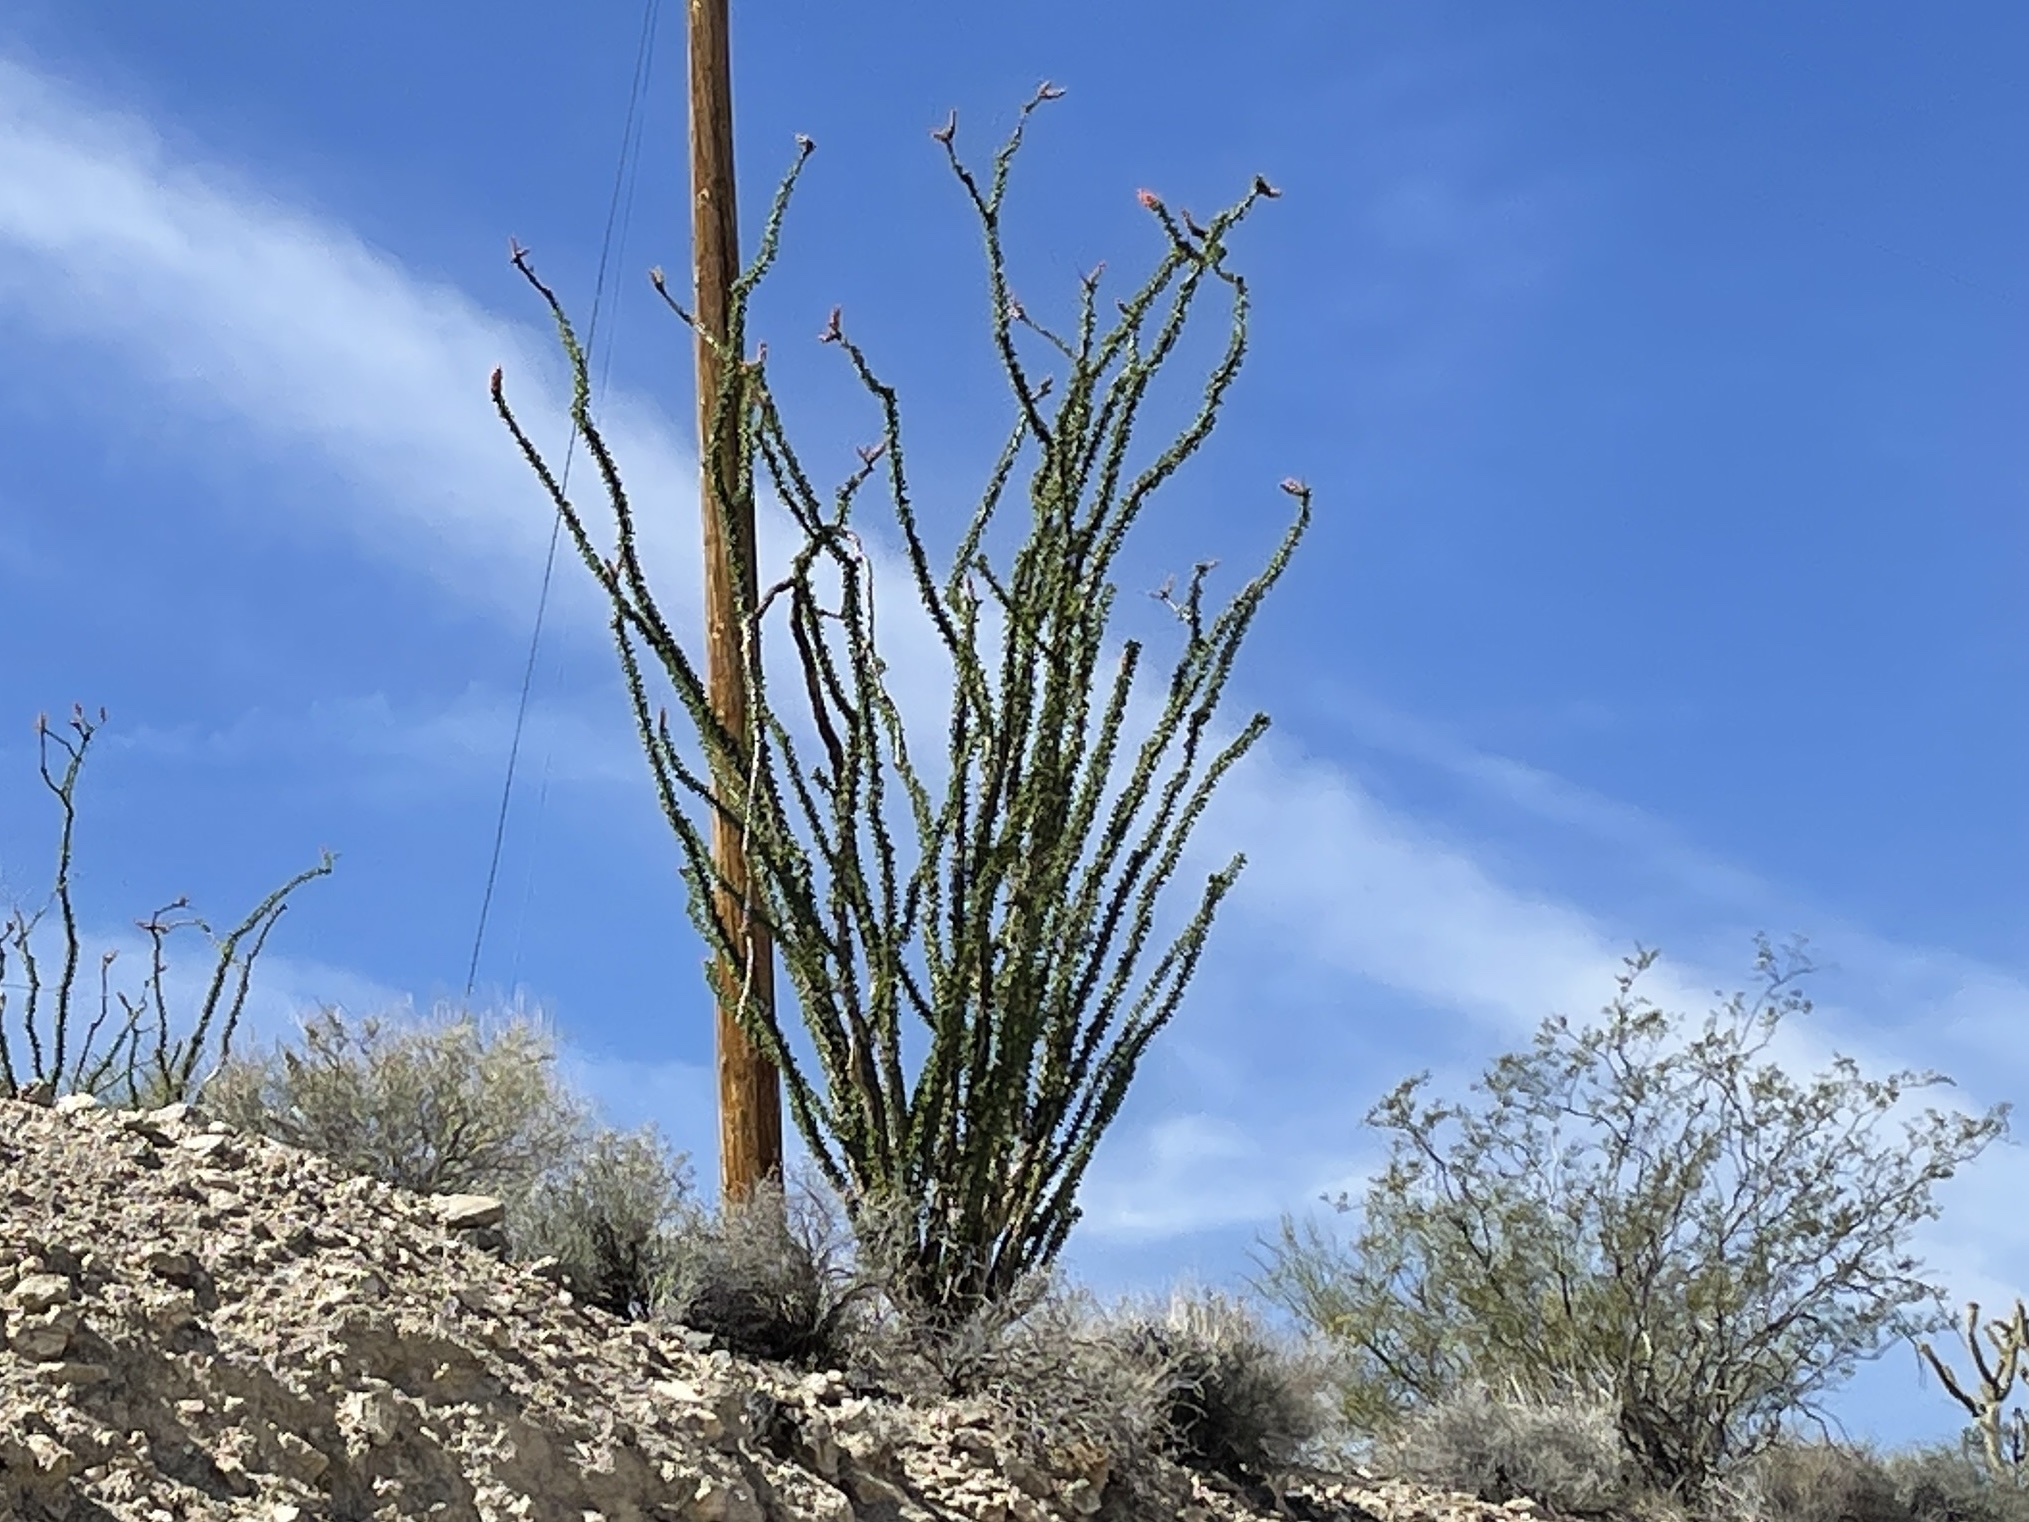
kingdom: Plantae
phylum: Tracheophyta
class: Magnoliopsida
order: Ericales
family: Fouquieriaceae
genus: Fouquieria
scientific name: Fouquieria splendens
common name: Vine-cactus
